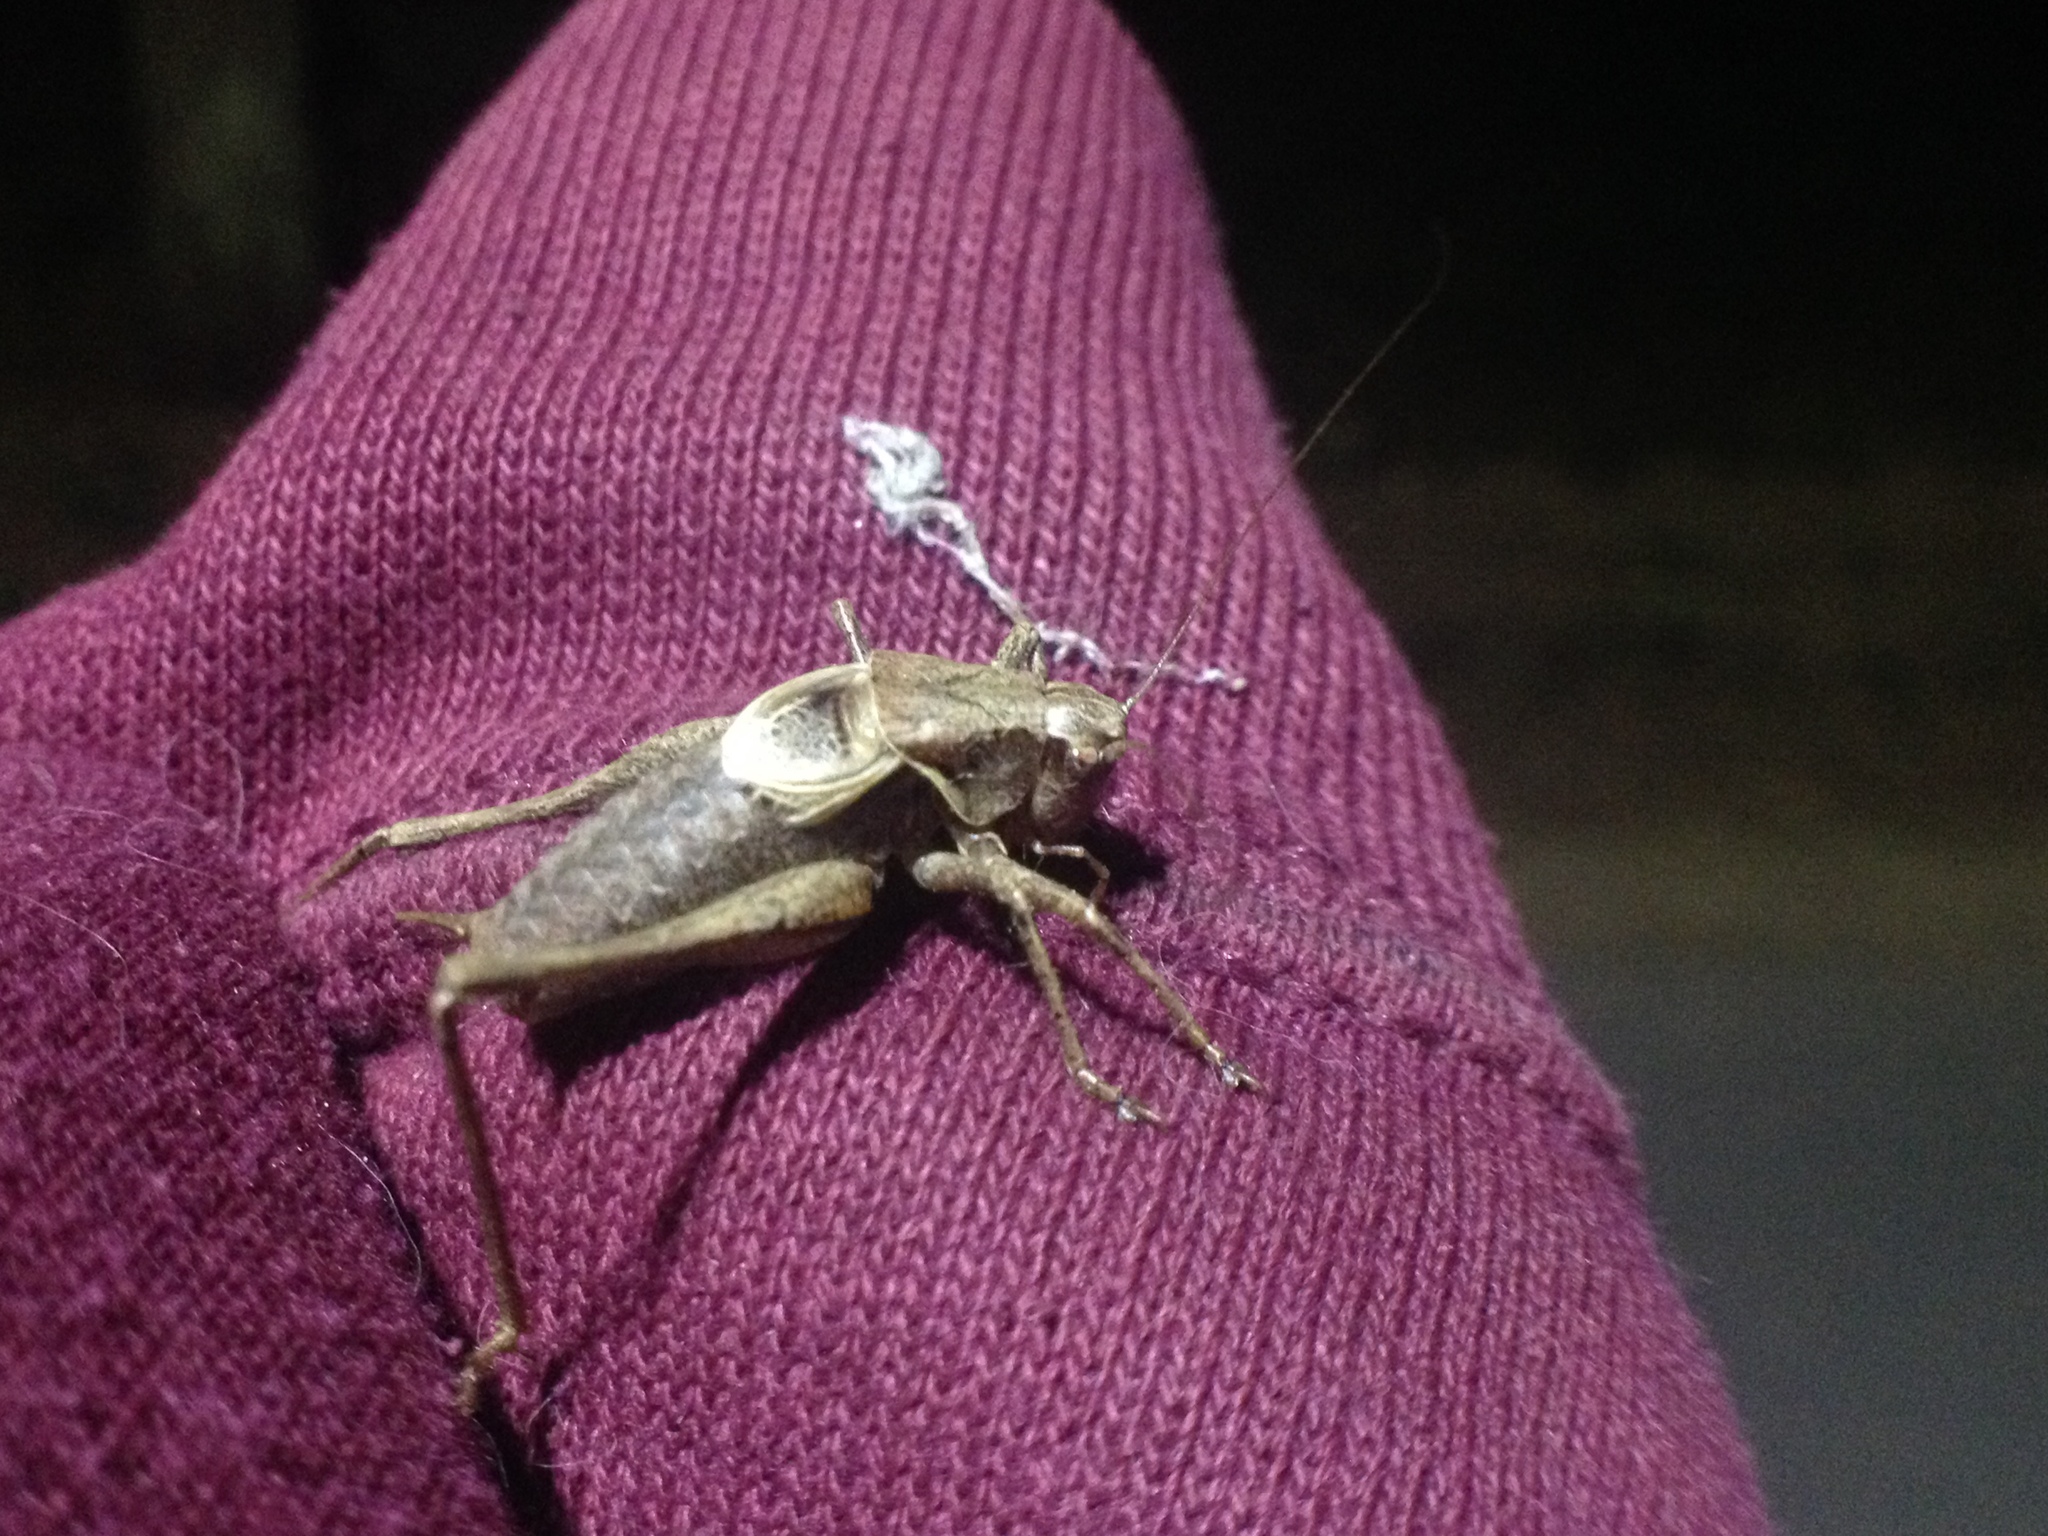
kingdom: Animalia
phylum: Arthropoda
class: Insecta
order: Orthoptera
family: Tettigoniidae
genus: Pholidoptera
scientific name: Pholidoptera griseoaptera
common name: Dark bush-cricket
